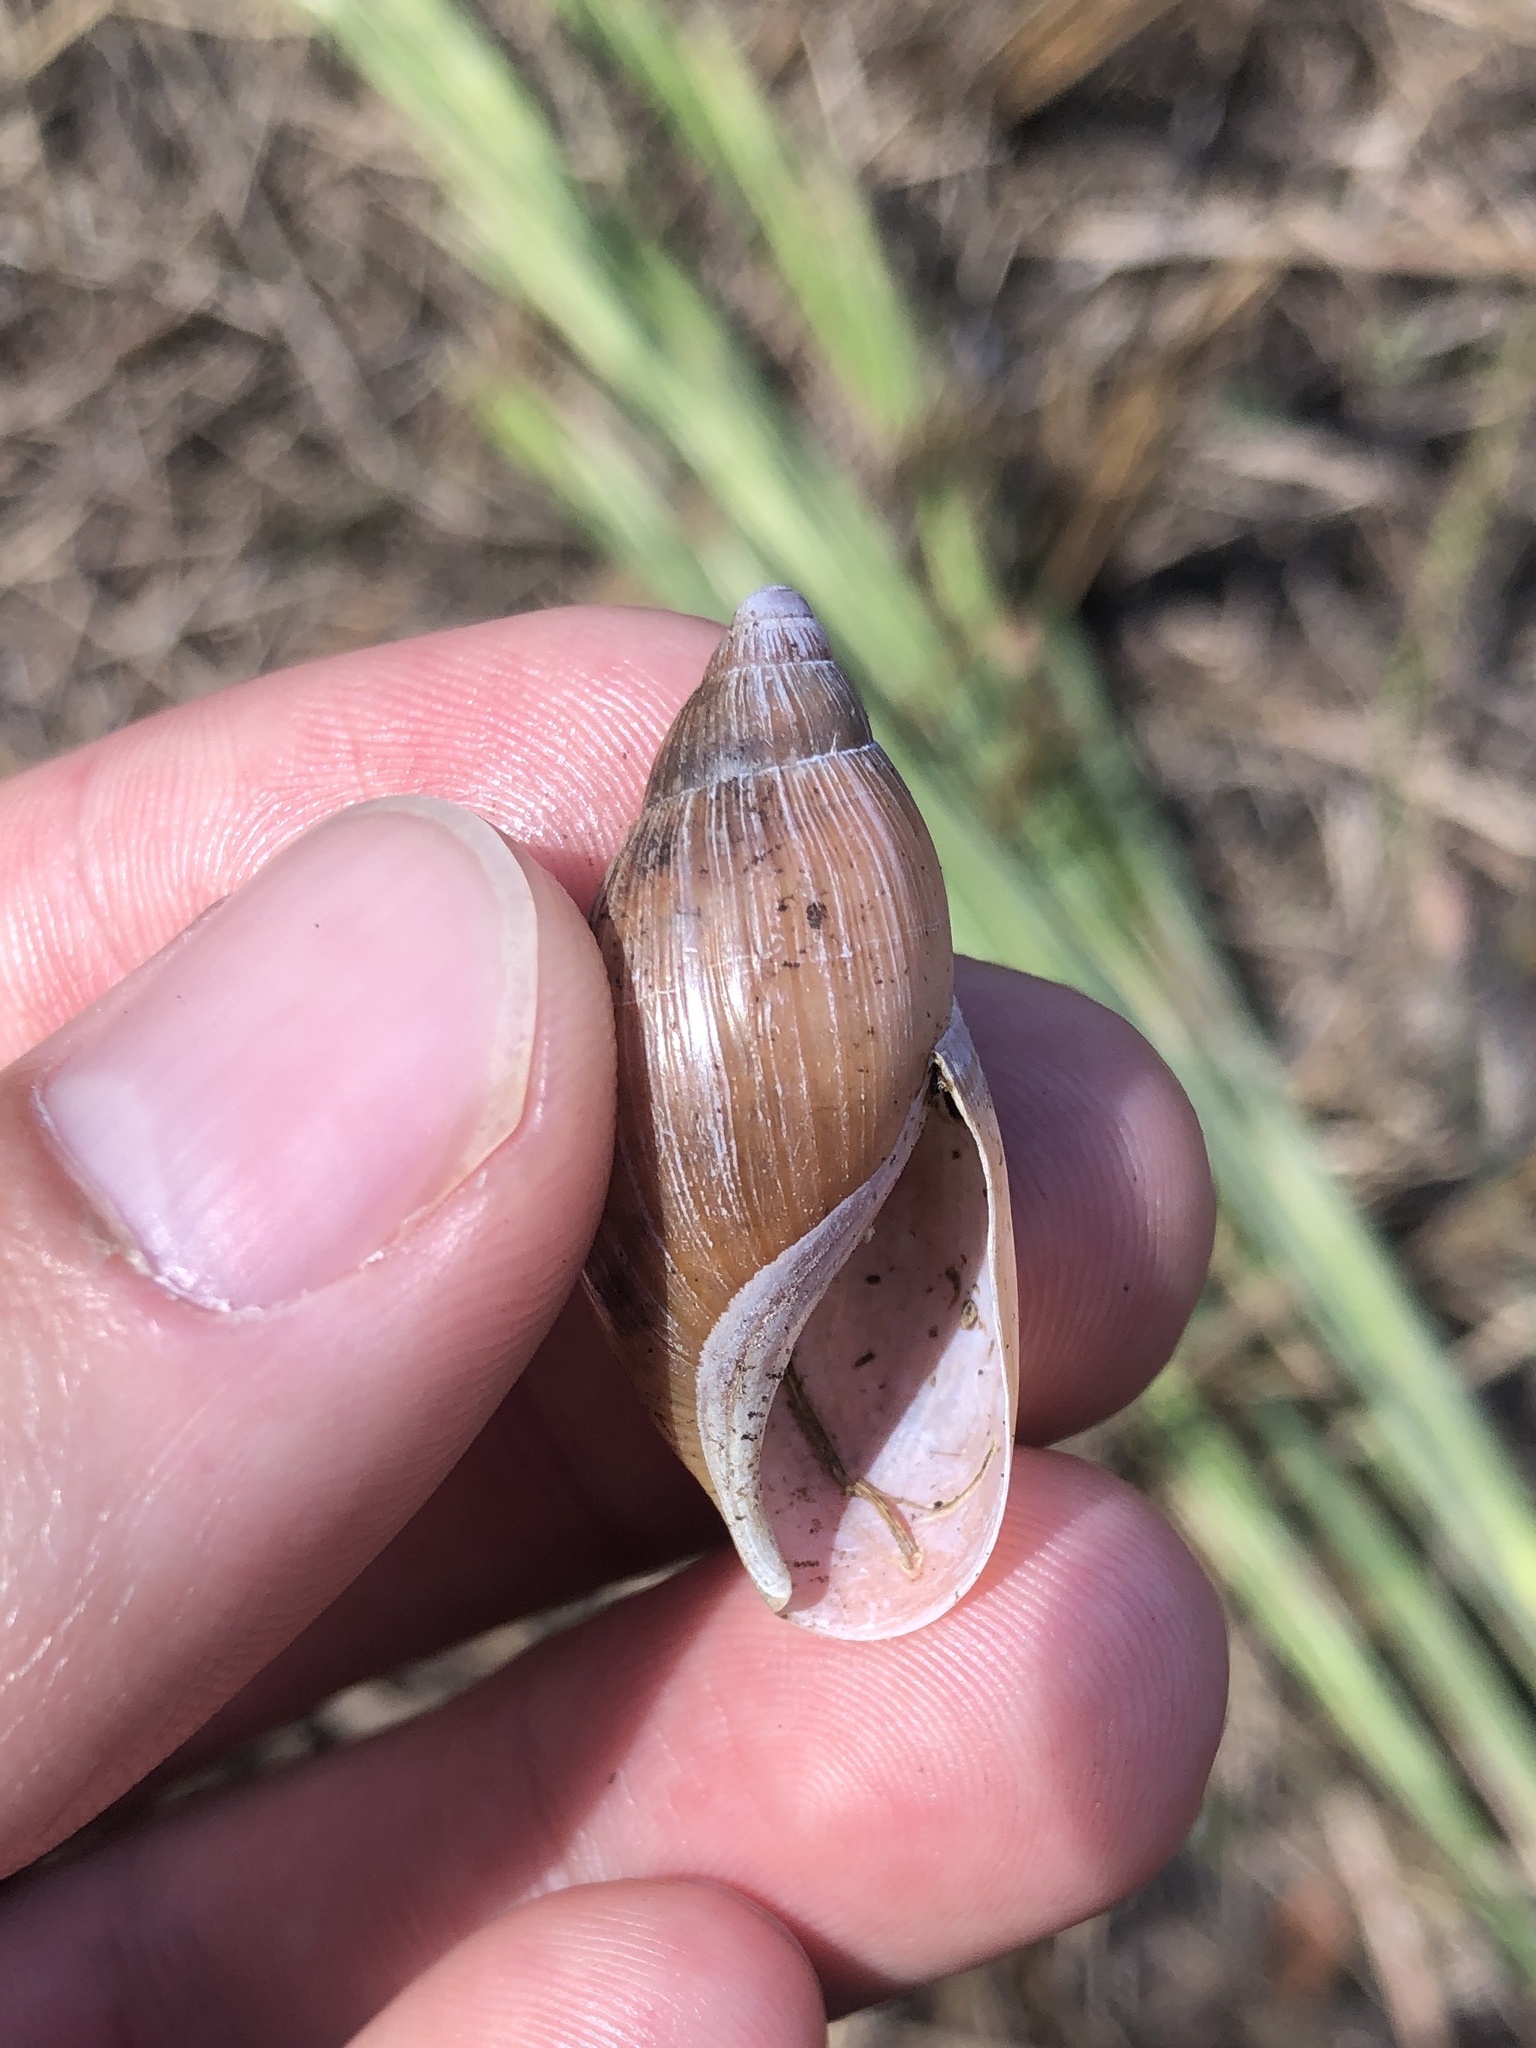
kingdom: Animalia
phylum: Mollusca
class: Gastropoda
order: Stylommatophora
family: Spiraxidae
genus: Euglandina
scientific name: Euglandina rosea
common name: Rosy wolfsnail
